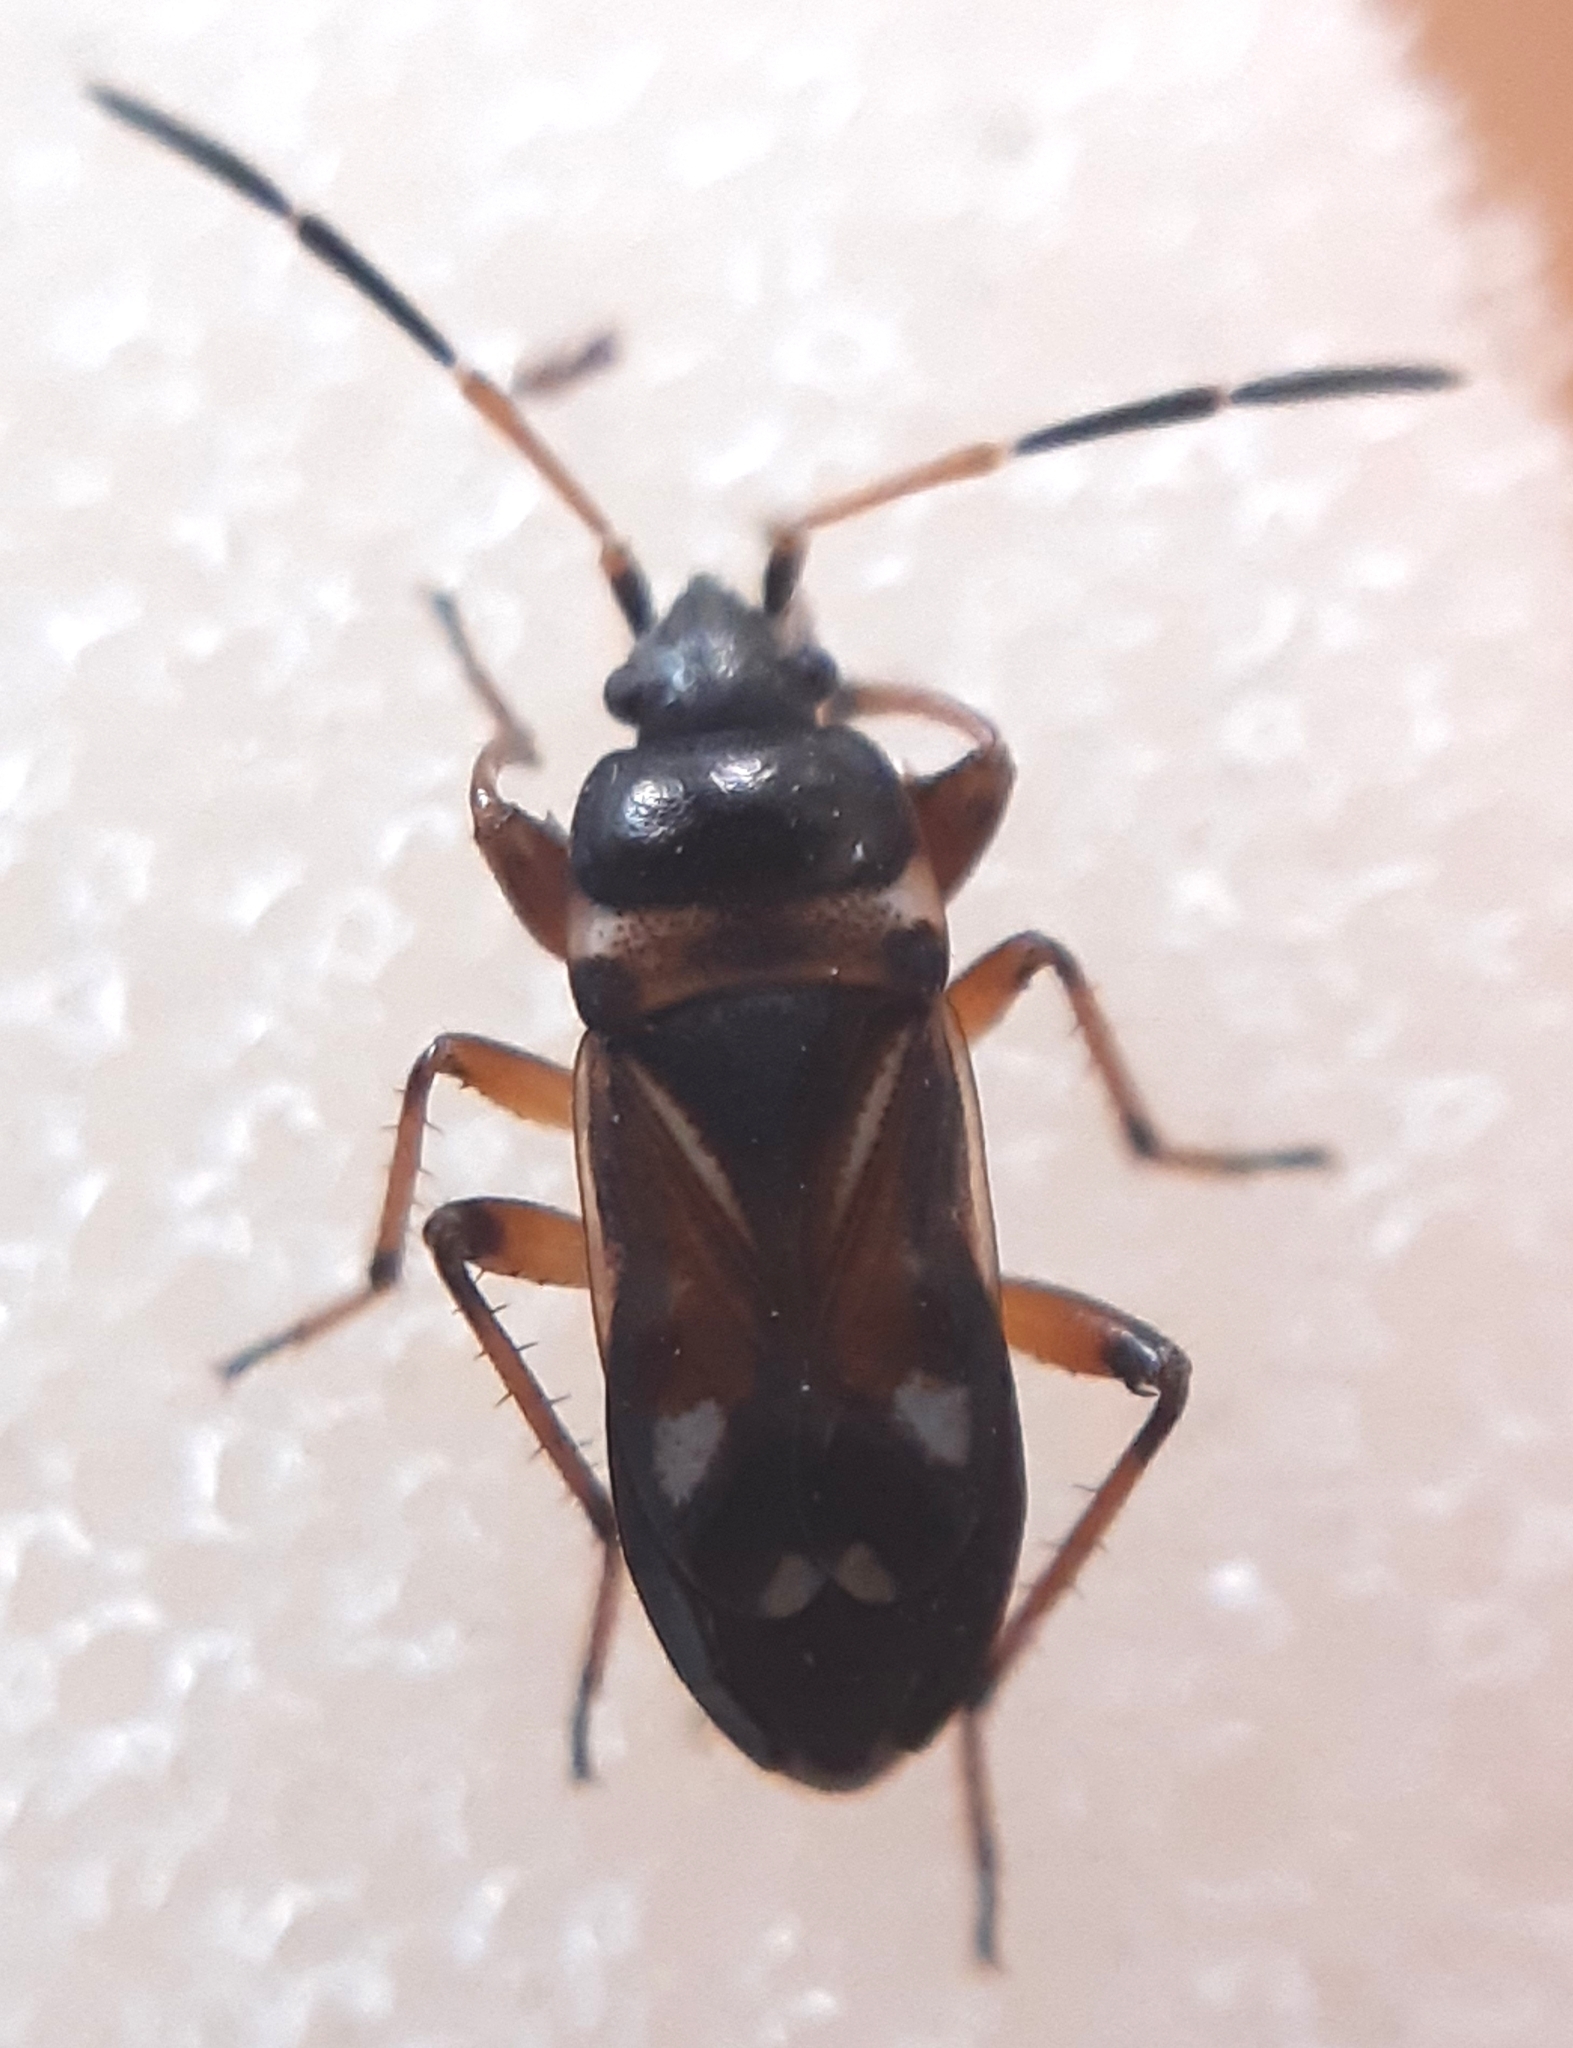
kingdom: Animalia
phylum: Arthropoda
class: Insecta
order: Hemiptera
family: Rhyparochromidae
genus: Raglius
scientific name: Raglius alboacuminatus
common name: Dirt-colored seed bug
